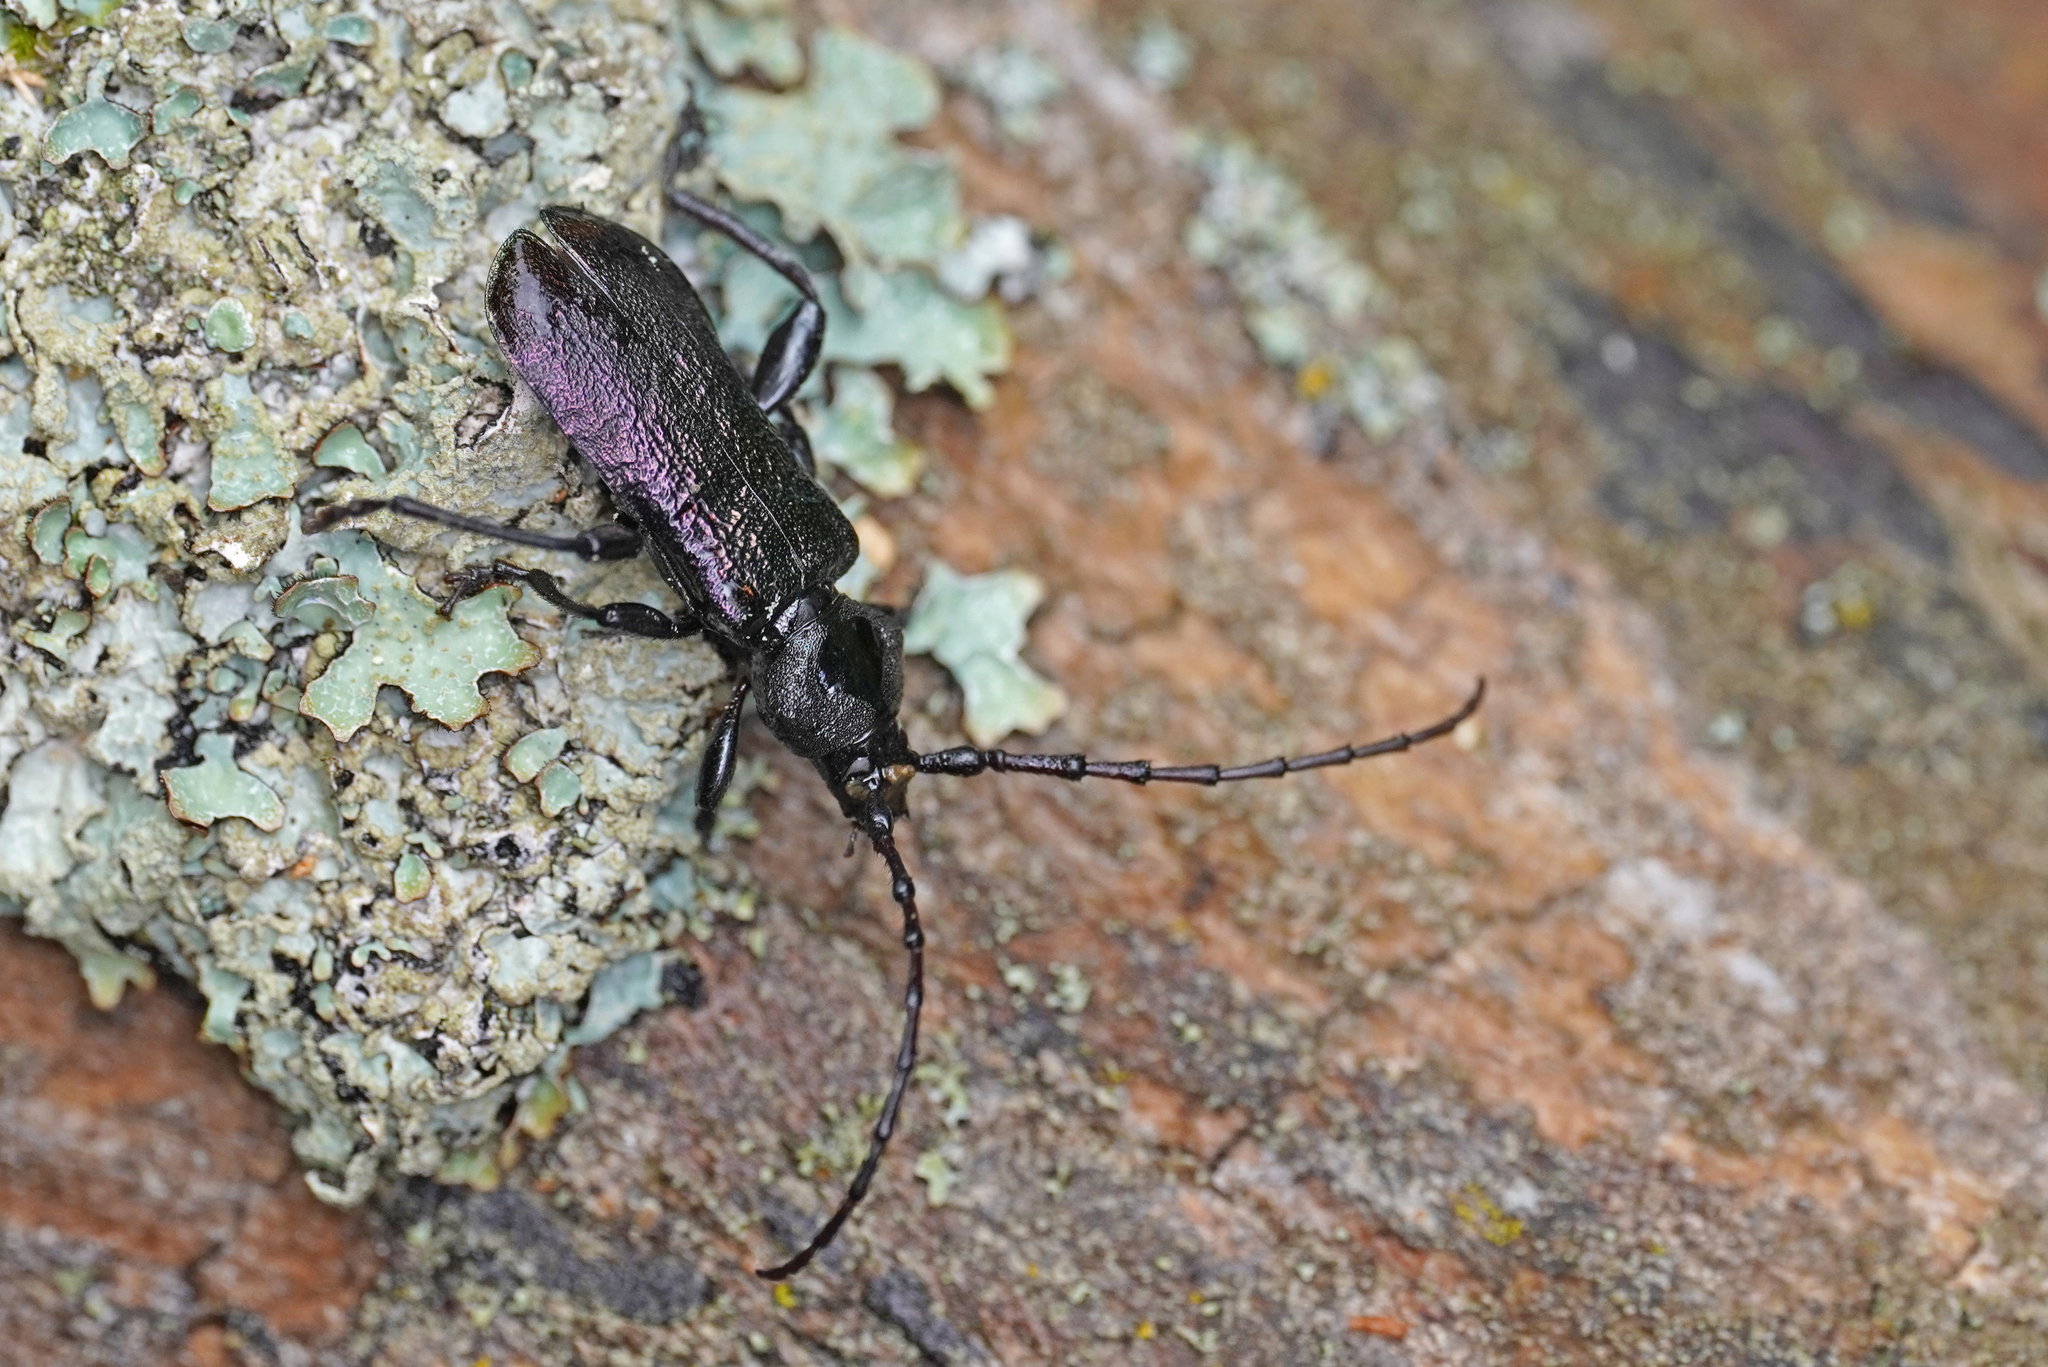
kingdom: Animalia
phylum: Arthropoda
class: Insecta
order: Coleoptera
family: Cerambycidae
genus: Ropalopus
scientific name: Ropalopus ungaricus
